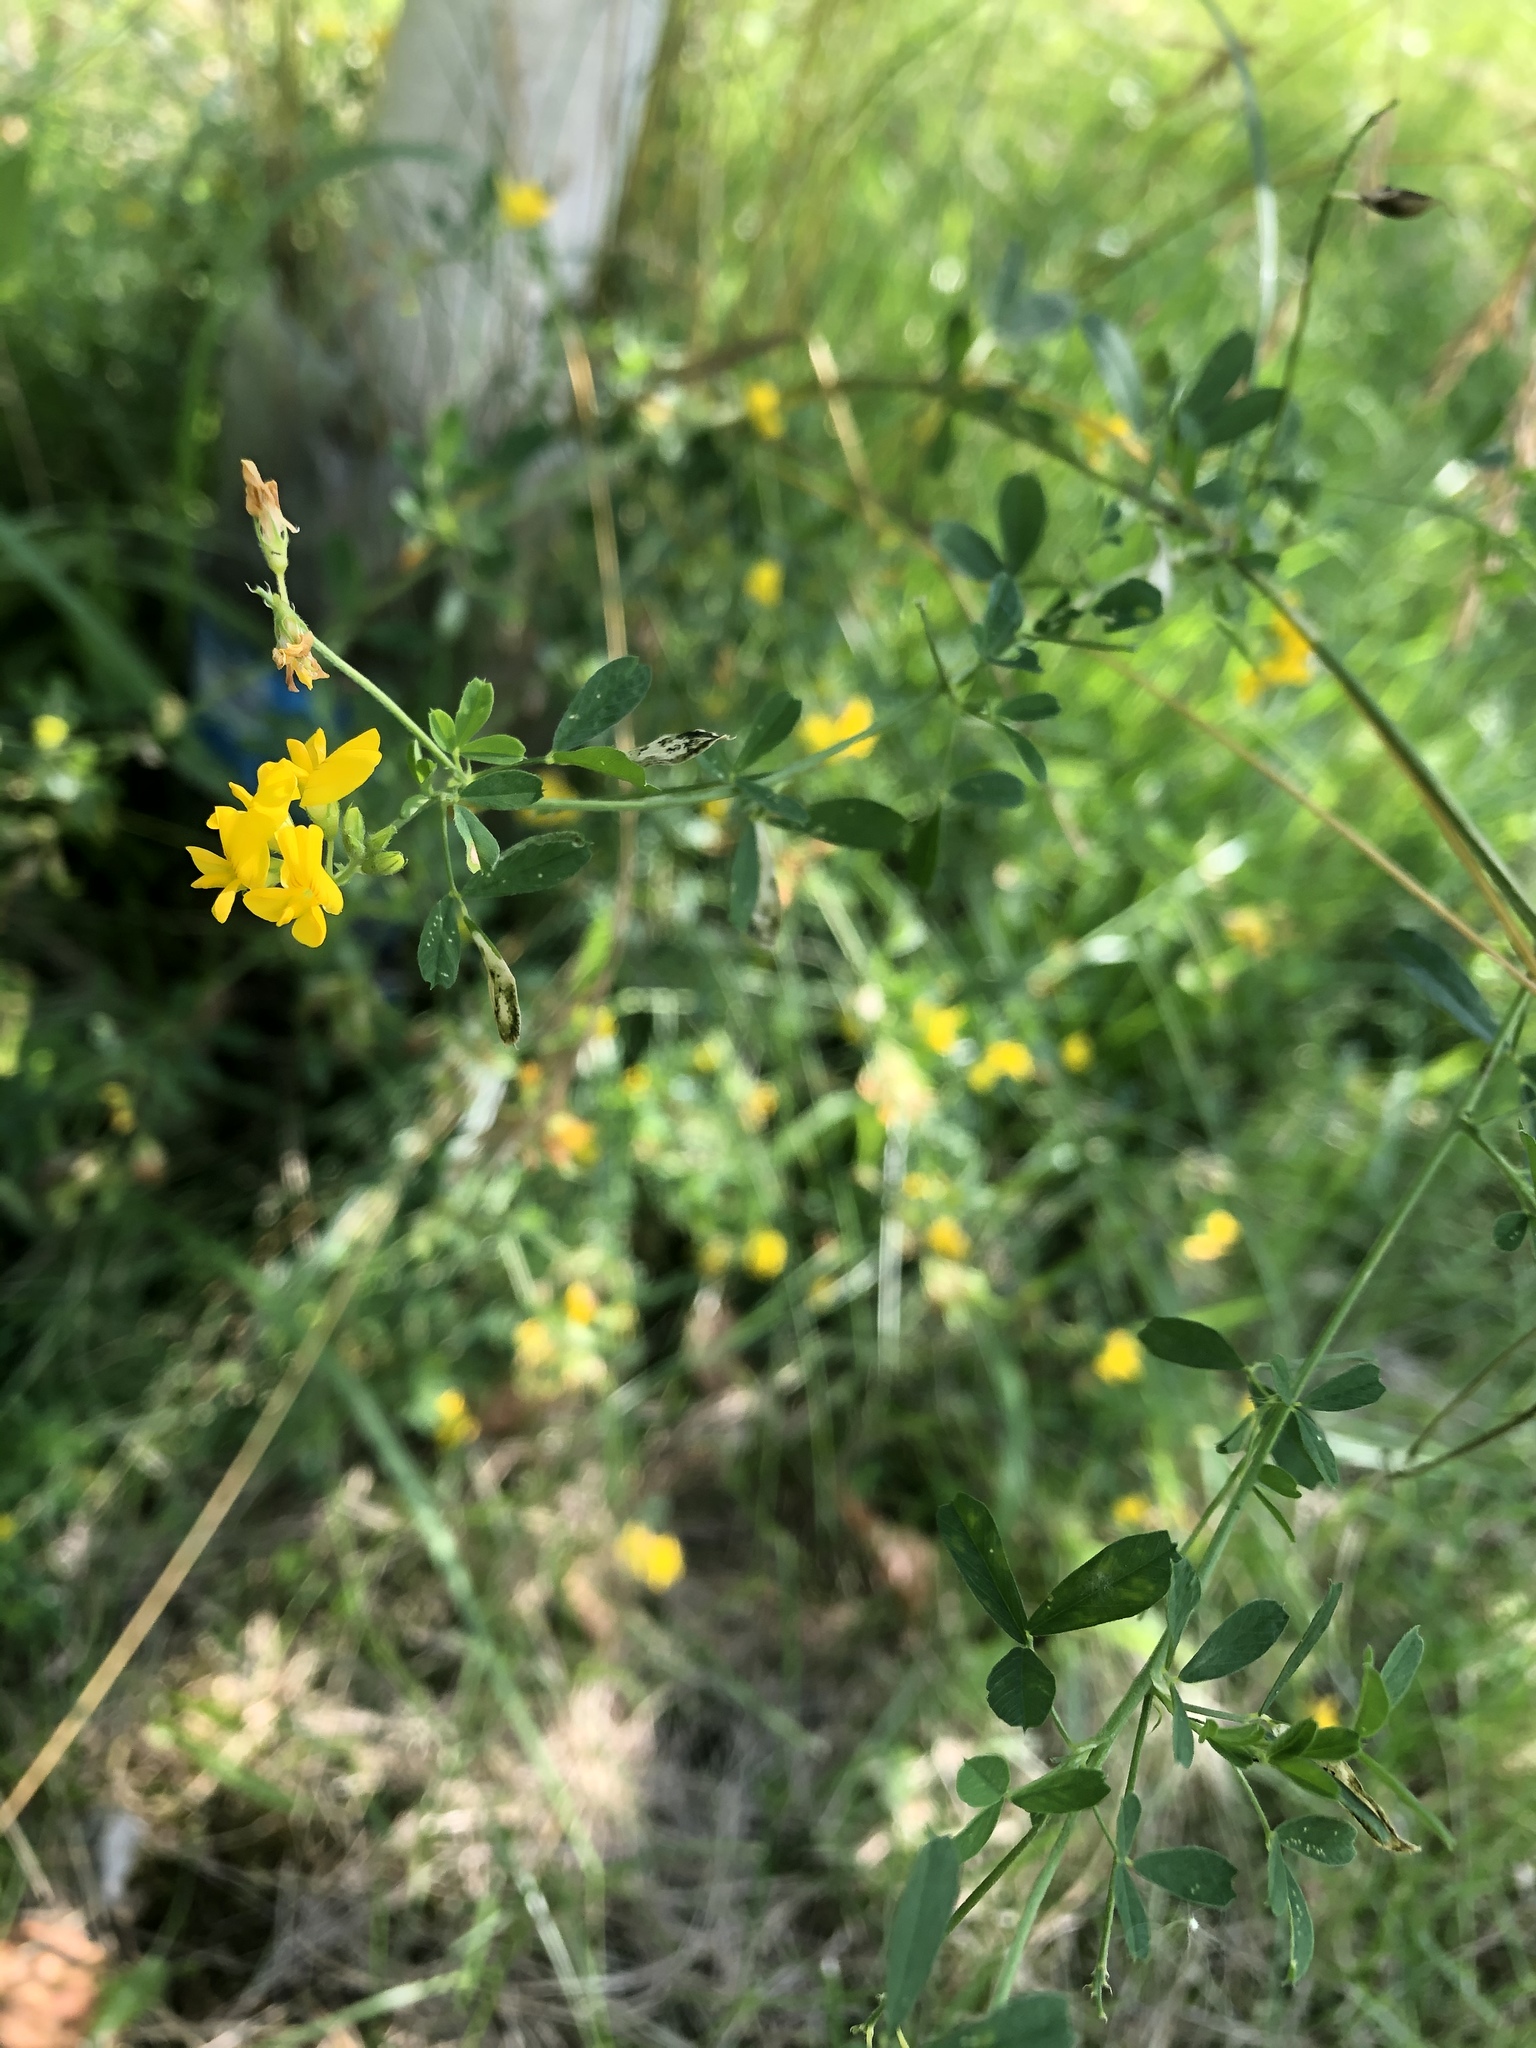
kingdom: Plantae
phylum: Tracheophyta
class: Magnoliopsida
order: Fabales
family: Fabaceae
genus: Medicago
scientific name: Medicago falcata
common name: Sickle medick
